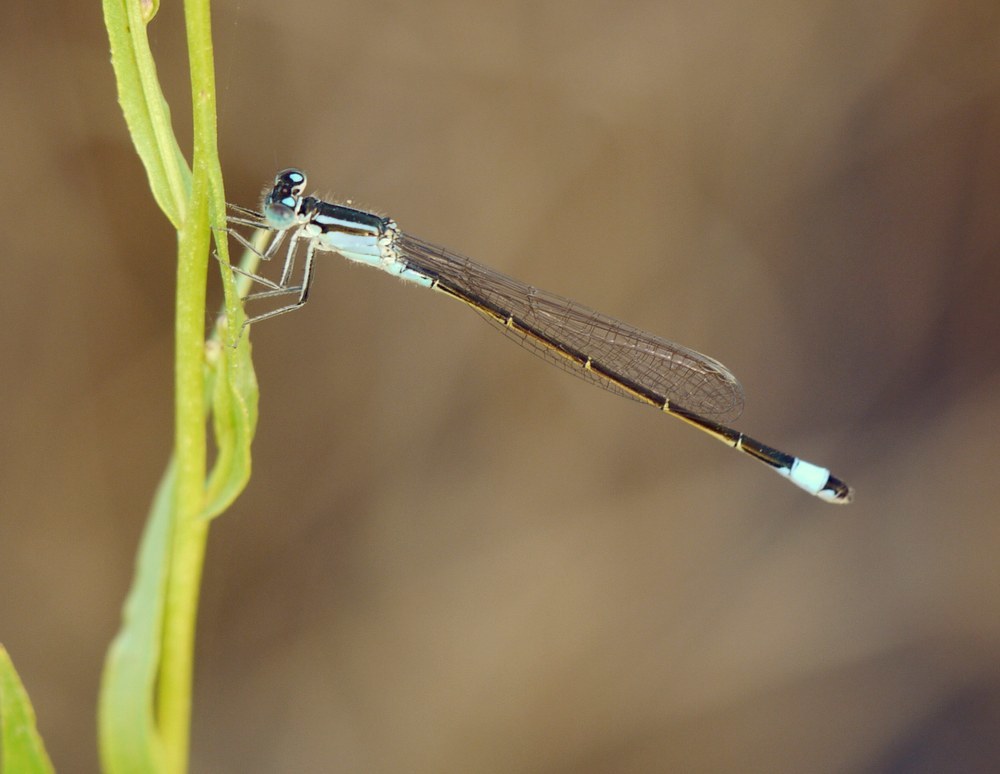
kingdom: Animalia
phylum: Arthropoda
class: Insecta
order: Odonata
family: Coenagrionidae
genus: Ischnura
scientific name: Ischnura elegans
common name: Blue-tailed damselfly
